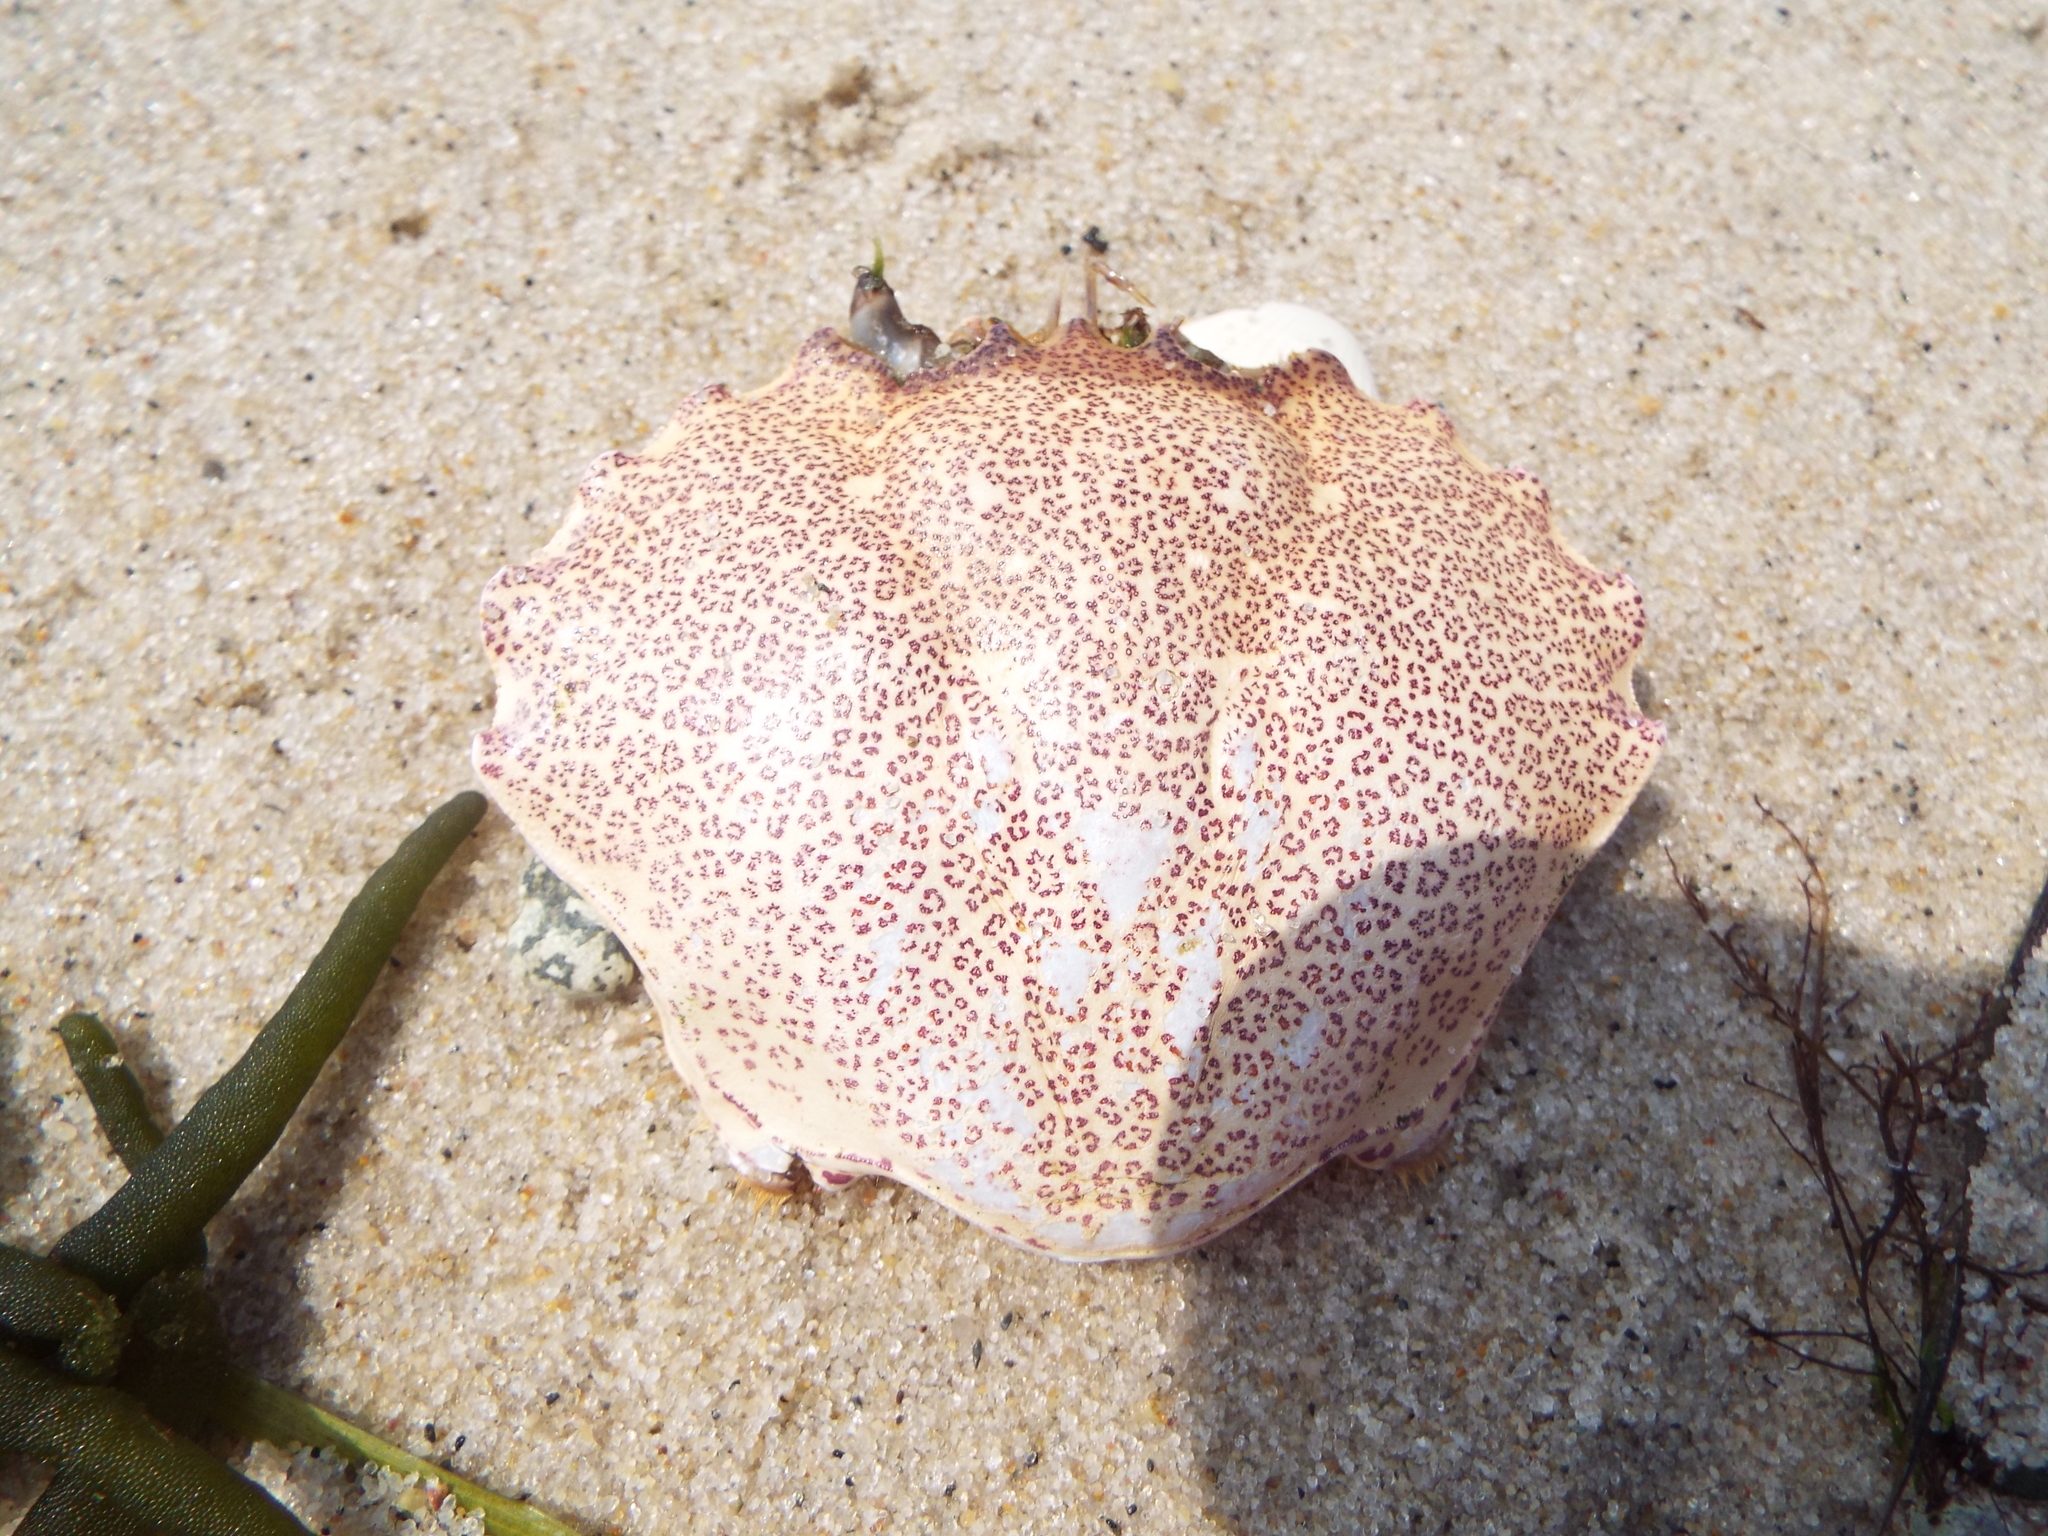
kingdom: Animalia
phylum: Arthropoda
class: Malacostraca
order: Decapoda
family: Ovalipidae
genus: Ovalipes
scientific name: Ovalipes ocellatus
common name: Lady crab
